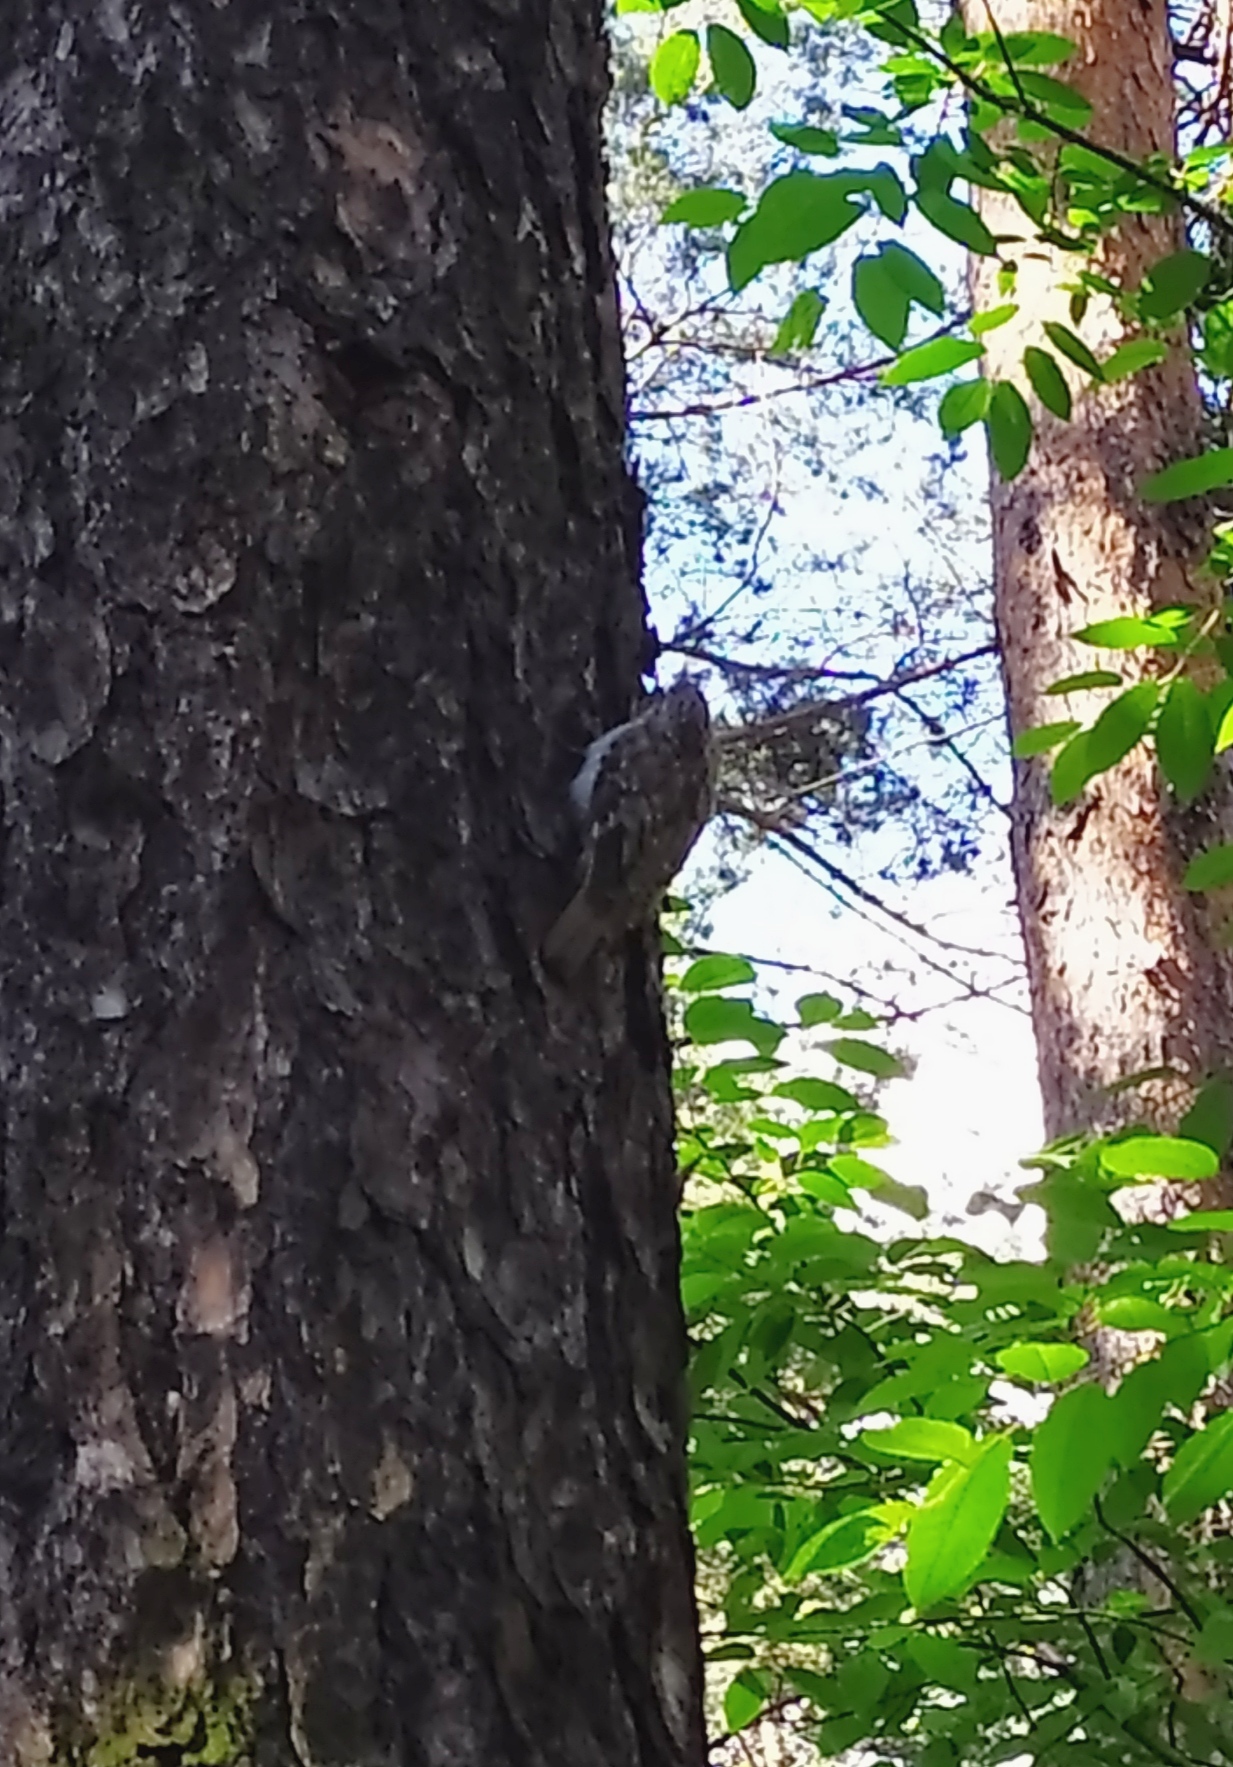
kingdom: Animalia
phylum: Chordata
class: Aves
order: Passeriformes
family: Certhiidae
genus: Certhia
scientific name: Certhia familiaris
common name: Eurasian treecreeper
